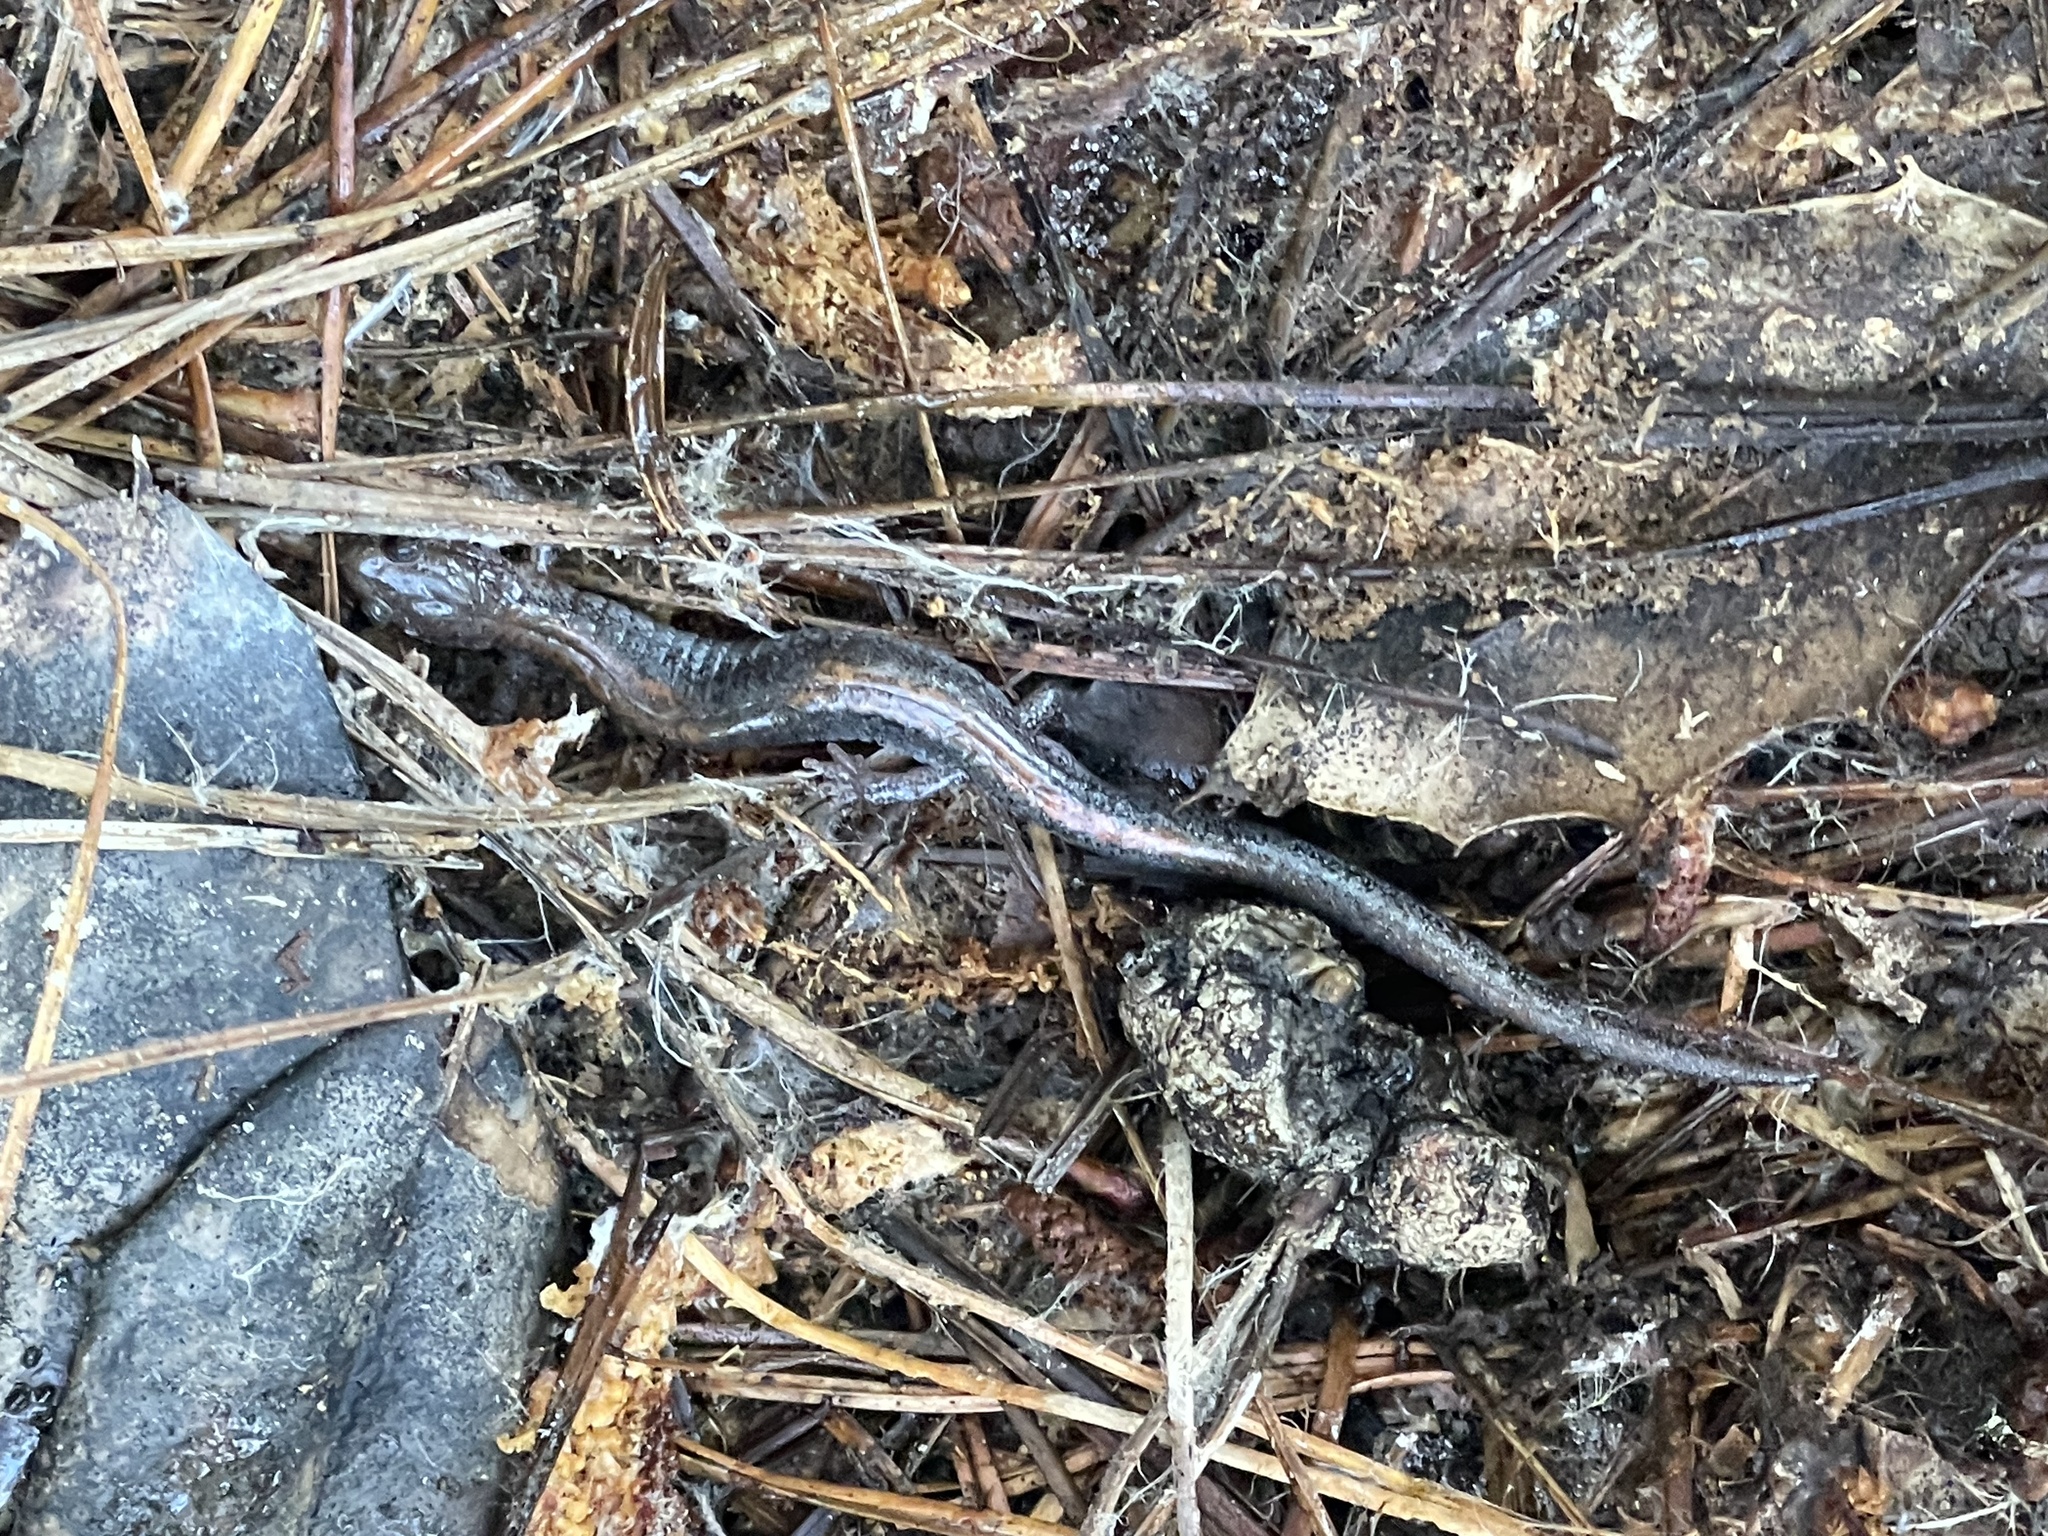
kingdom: Animalia
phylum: Chordata
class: Amphibia
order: Caudata
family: Plethodontidae
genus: Plethodon
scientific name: Plethodon cinereus
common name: Redback salamander
